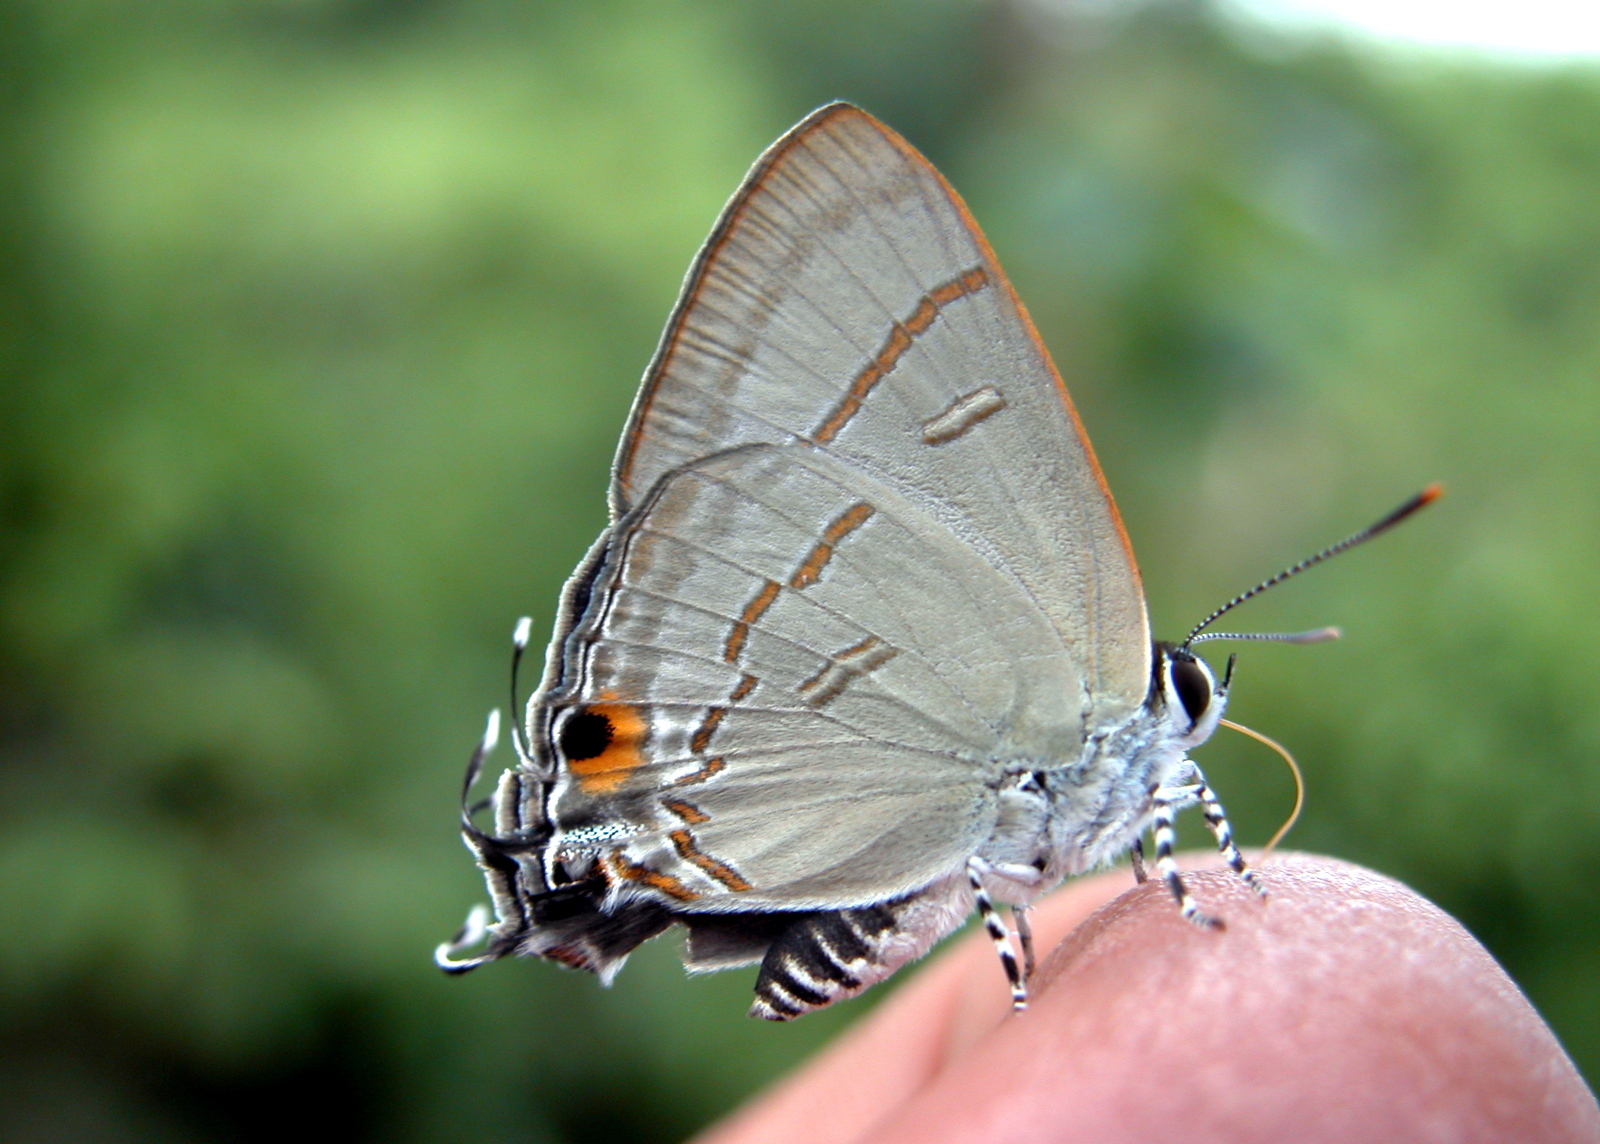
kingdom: Animalia
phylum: Arthropoda
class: Insecta
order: Lepidoptera
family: Lycaenidae
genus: Hypolycaena
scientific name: Hypolycaena erylus
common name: Common tit
